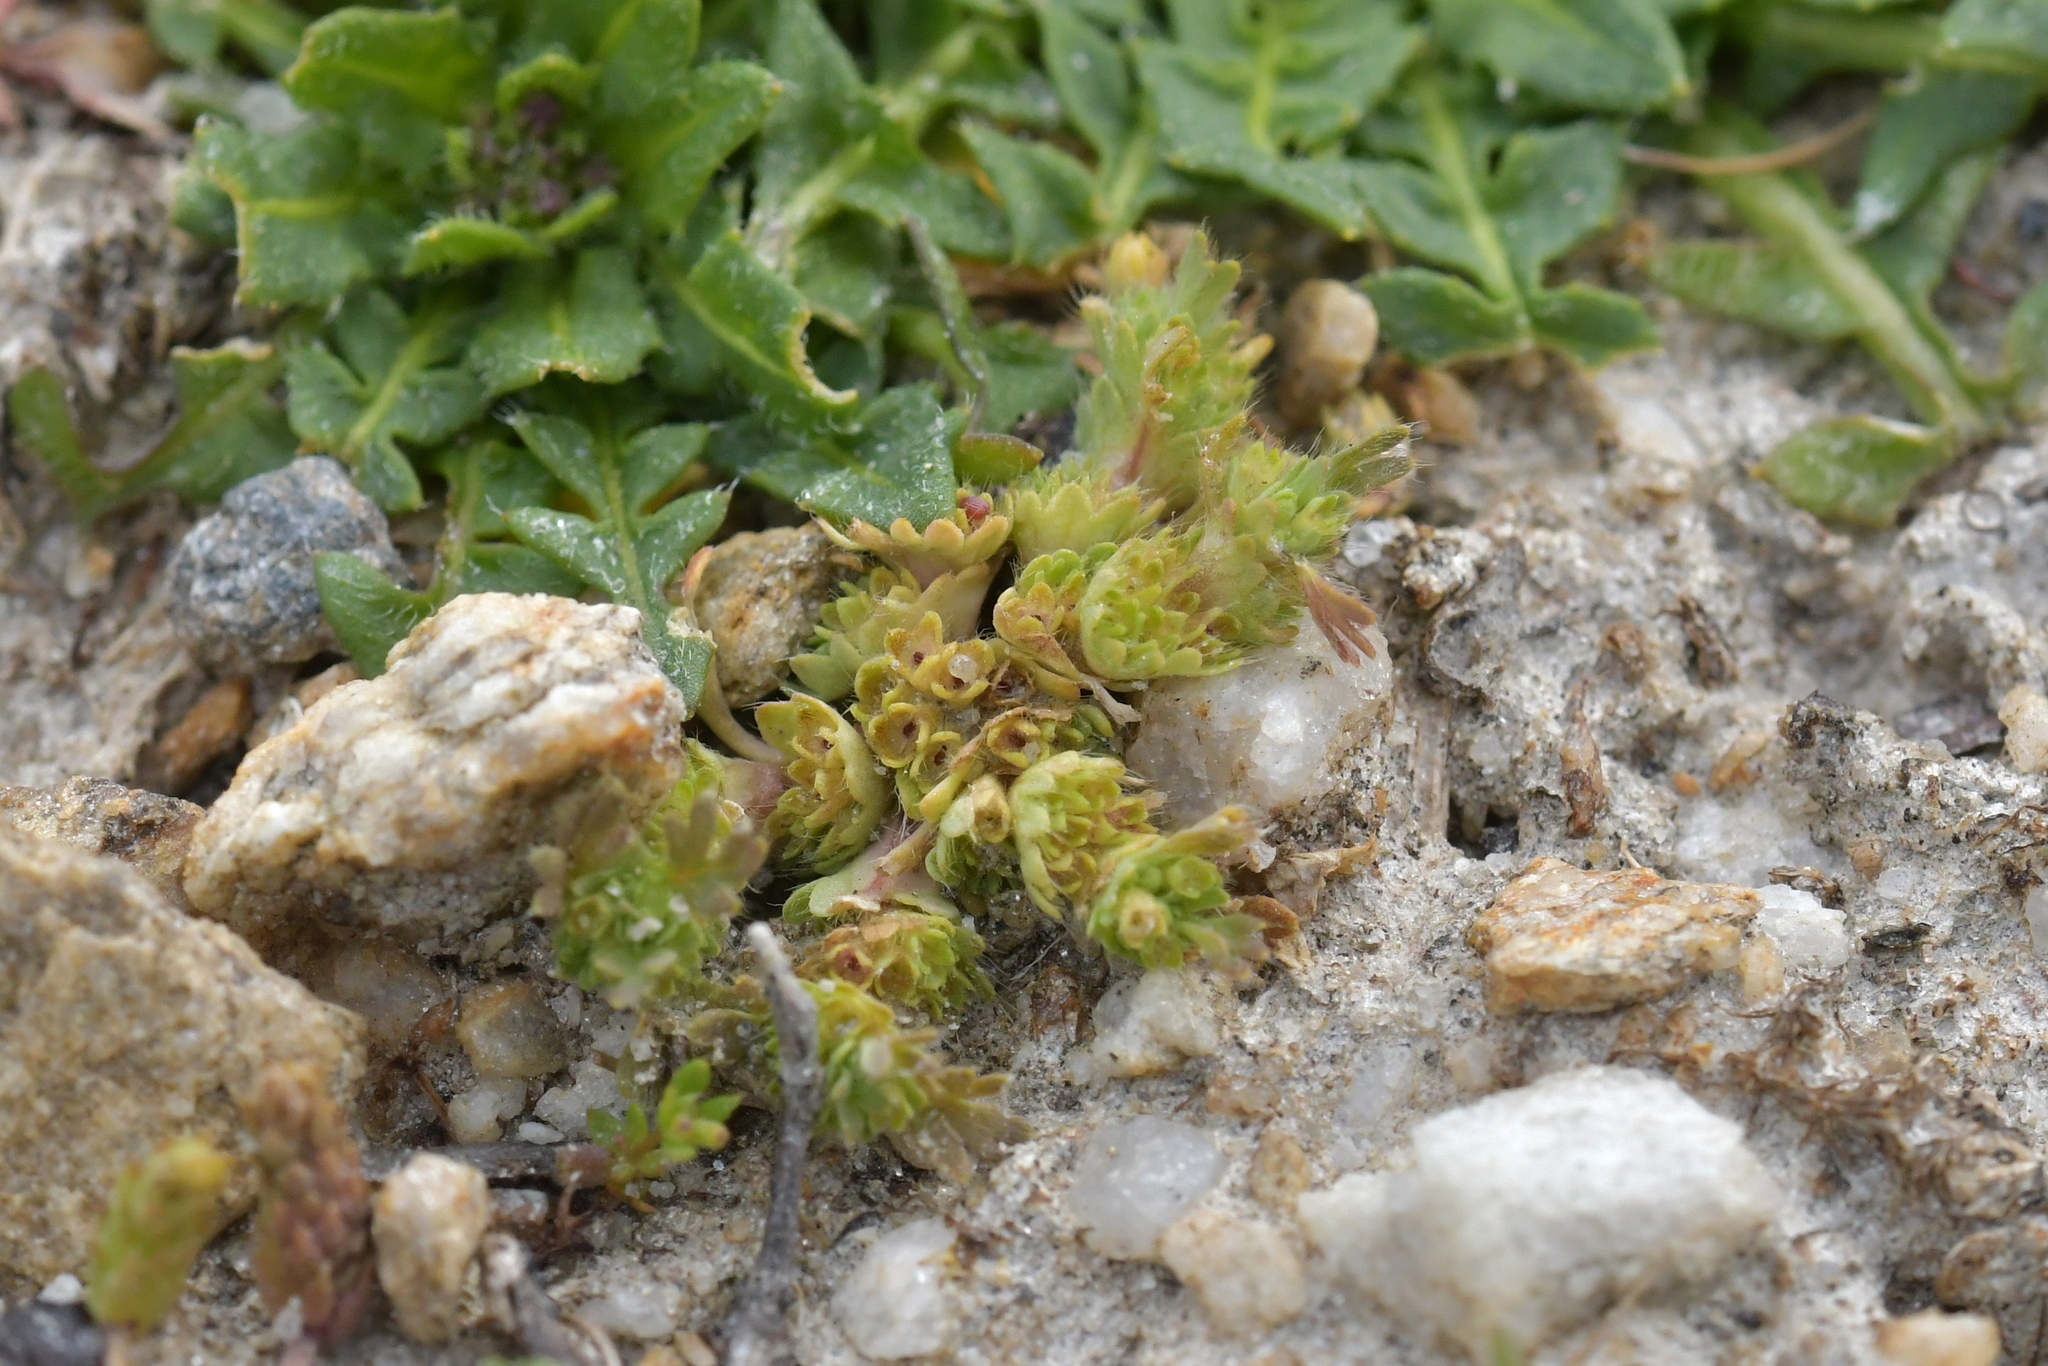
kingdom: Plantae
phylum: Tracheophyta
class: Magnoliopsida
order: Rosales
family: Rosaceae
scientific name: Rosaceae
